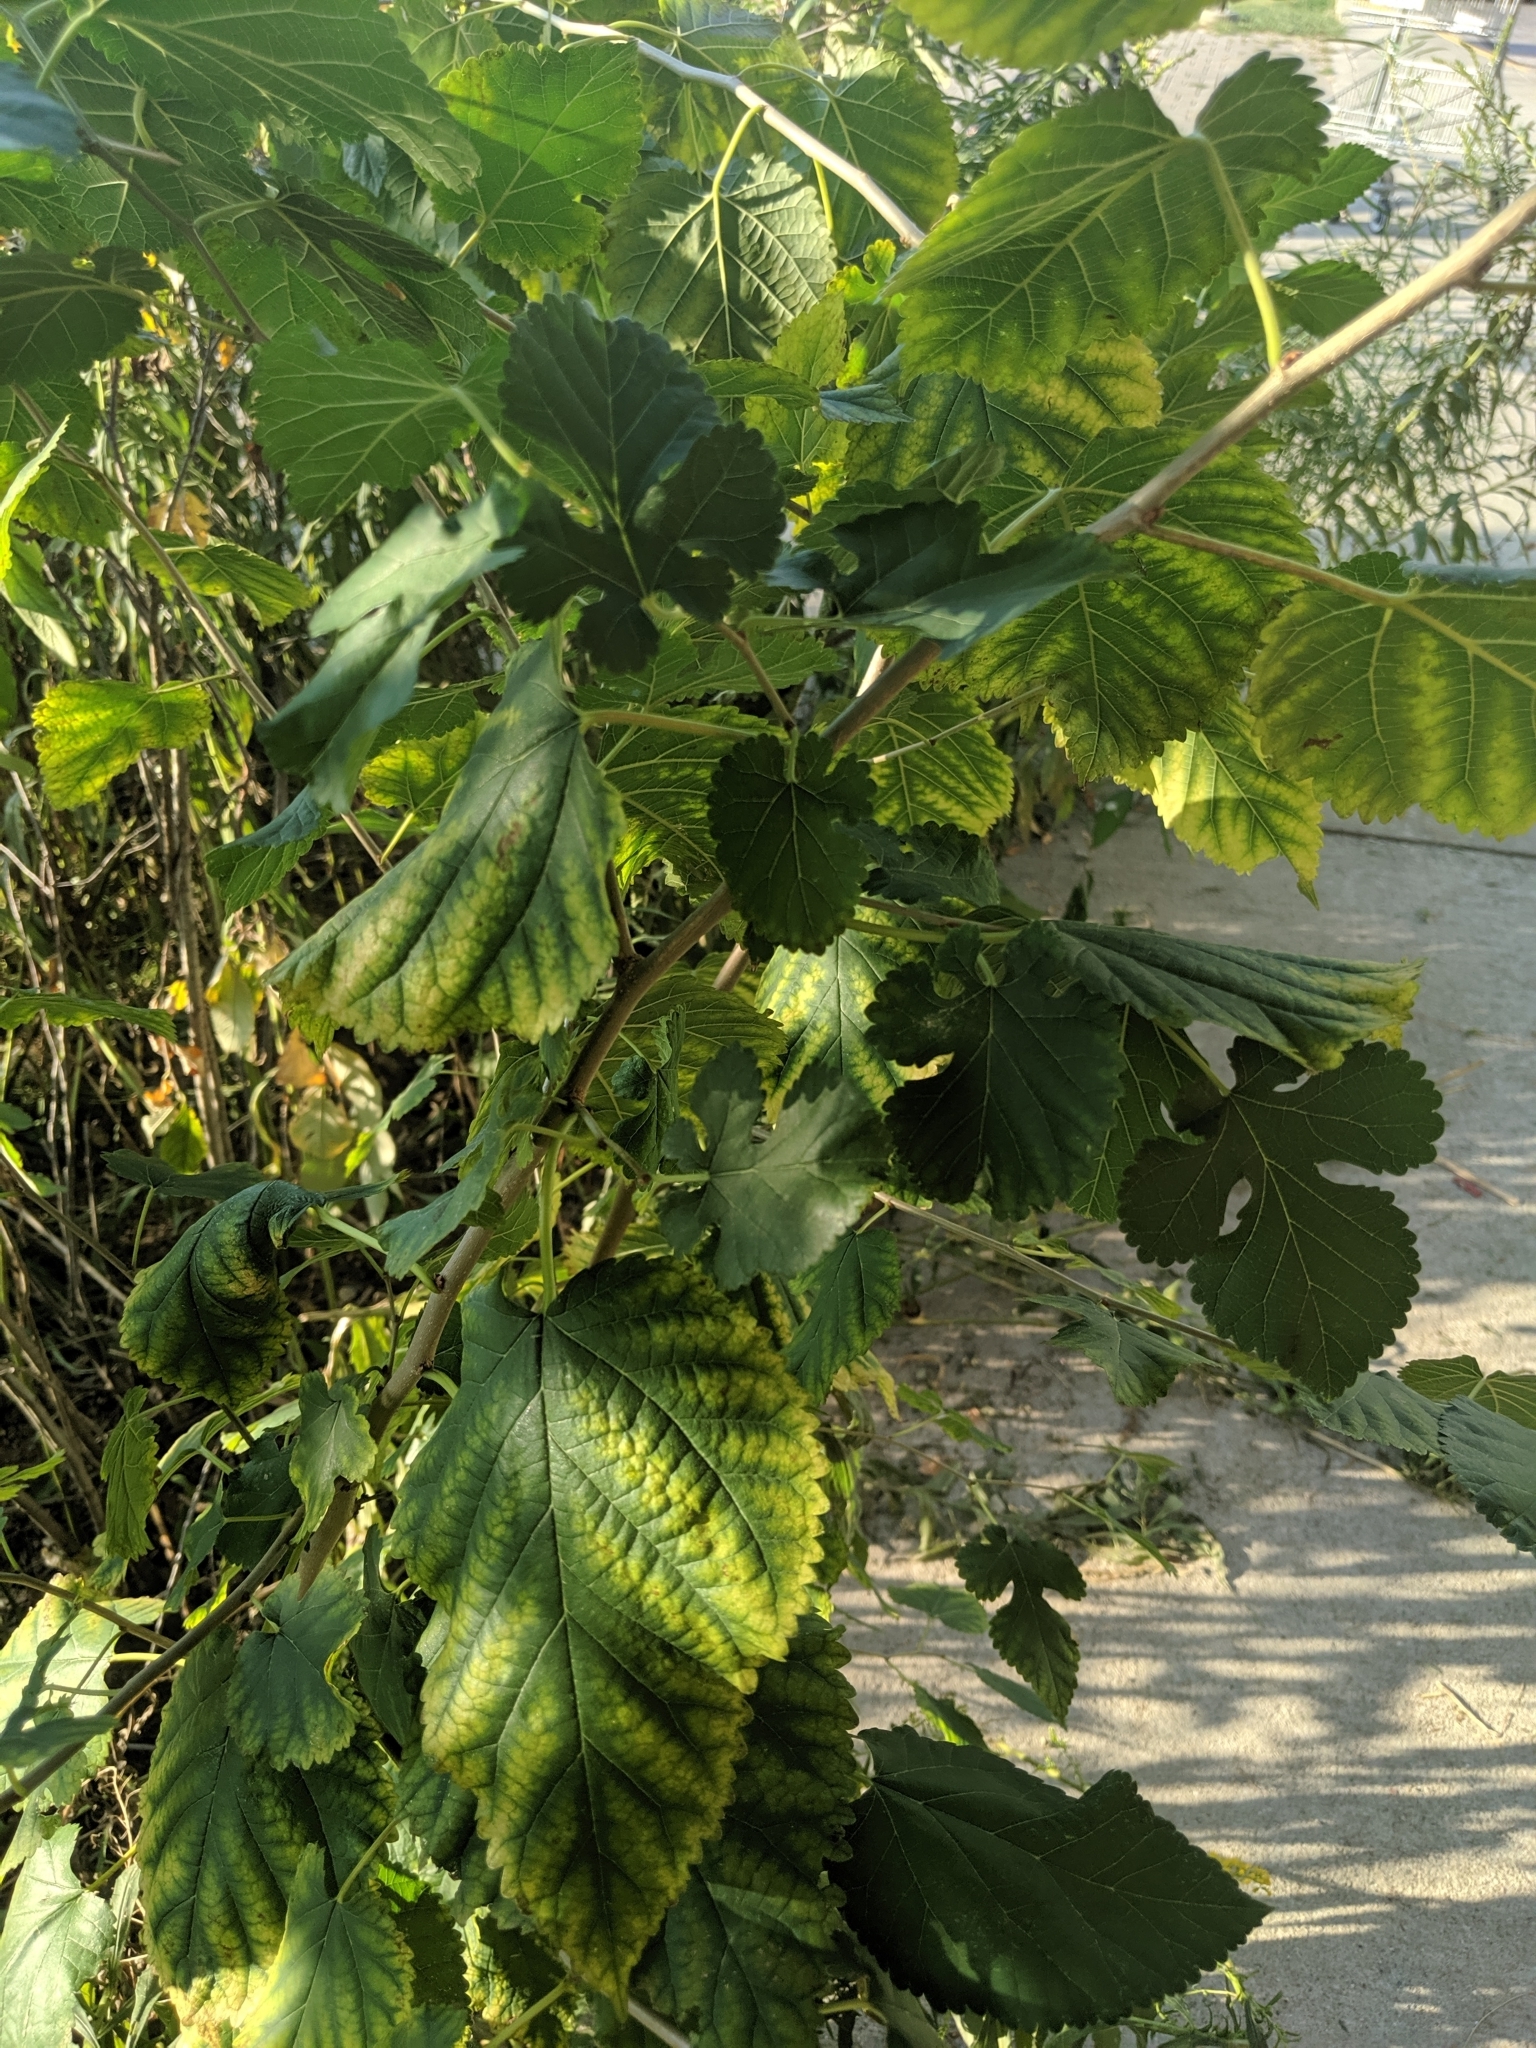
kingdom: Plantae
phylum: Tracheophyta
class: Magnoliopsida
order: Rosales
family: Moraceae
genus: Morus
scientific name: Morus alba
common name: White mulberry
